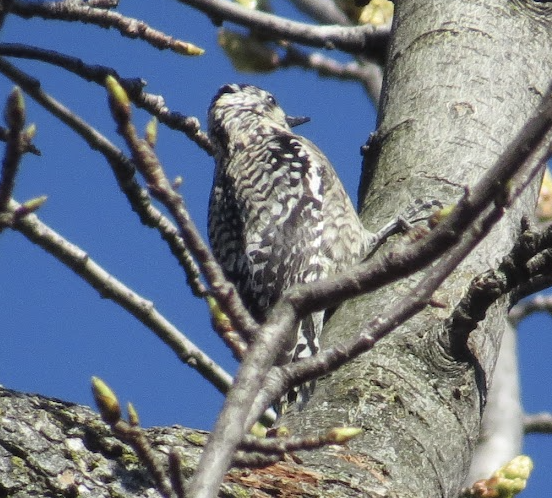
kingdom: Animalia
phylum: Chordata
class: Aves
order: Piciformes
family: Picidae
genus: Sphyrapicus
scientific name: Sphyrapicus varius
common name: Yellow-bellied sapsucker
